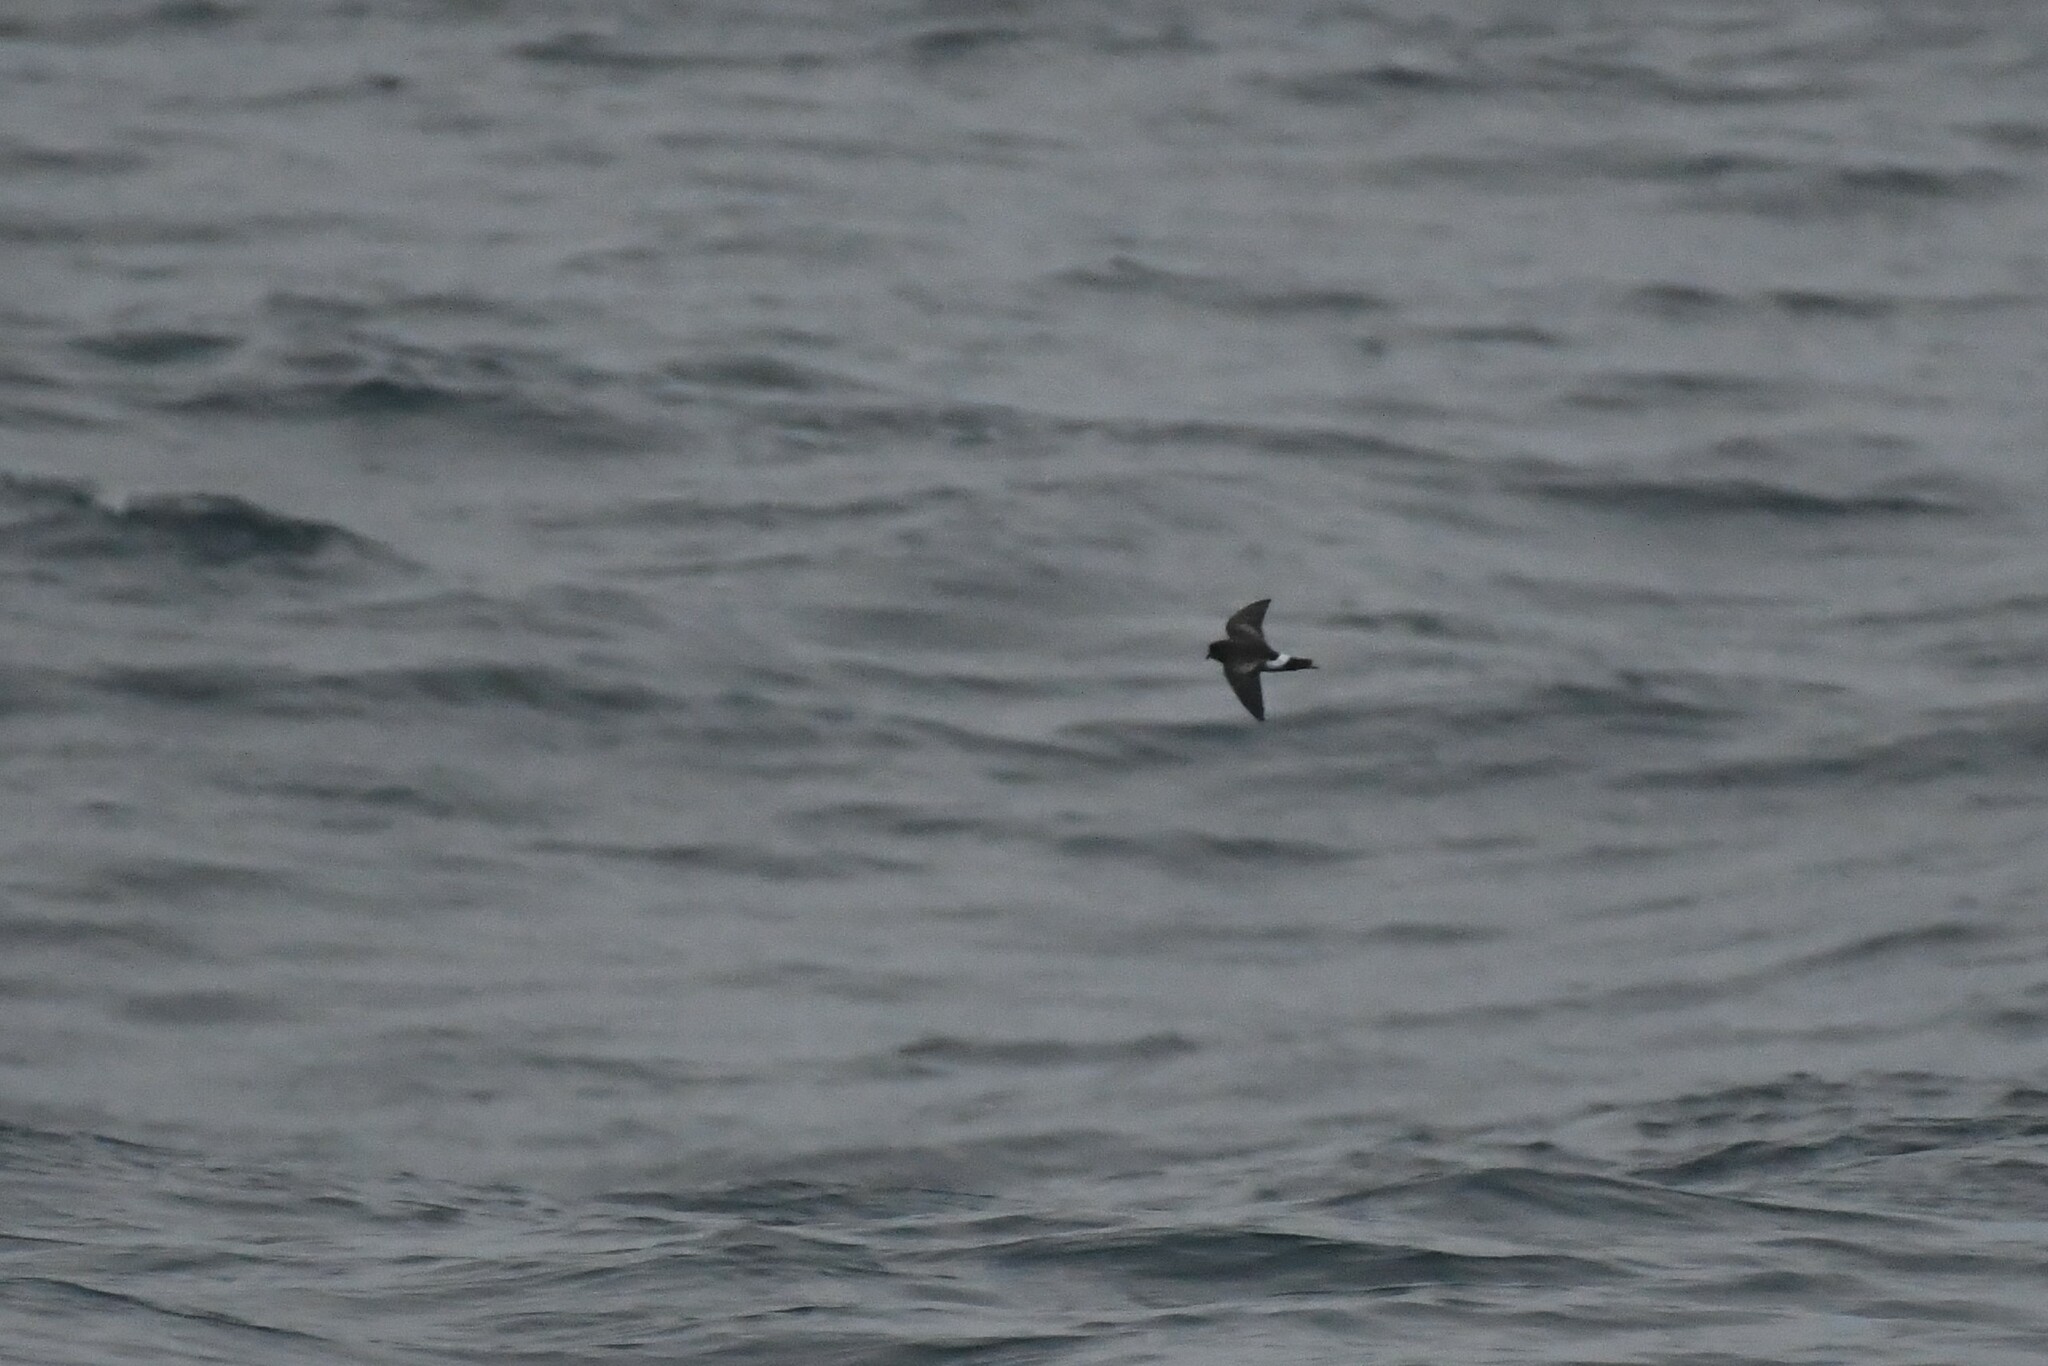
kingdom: Animalia
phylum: Chordata
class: Aves
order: Procellariiformes
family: Hydrobatidae
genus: Oceanites
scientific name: Oceanites oceanicus
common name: Wilson's storm petrel
